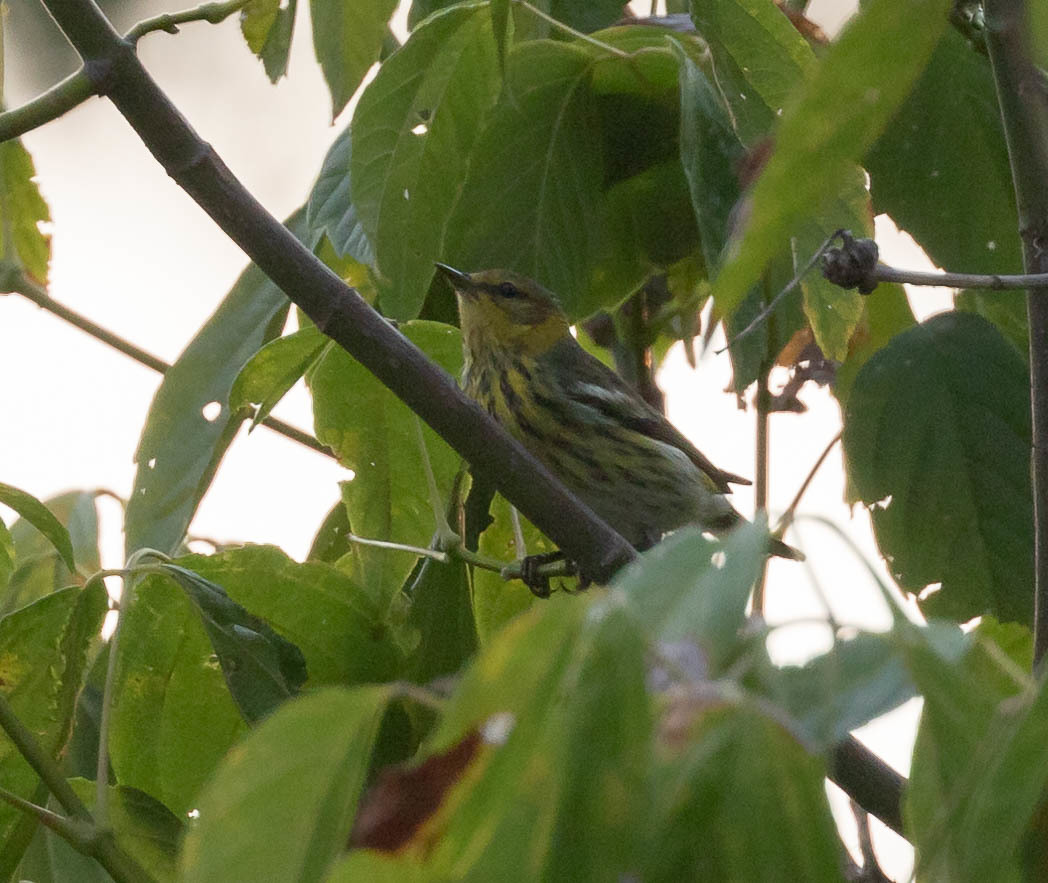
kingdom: Animalia
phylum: Chordata
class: Aves
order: Passeriformes
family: Parulidae
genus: Setophaga
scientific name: Setophaga tigrina
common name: Cape may warbler
